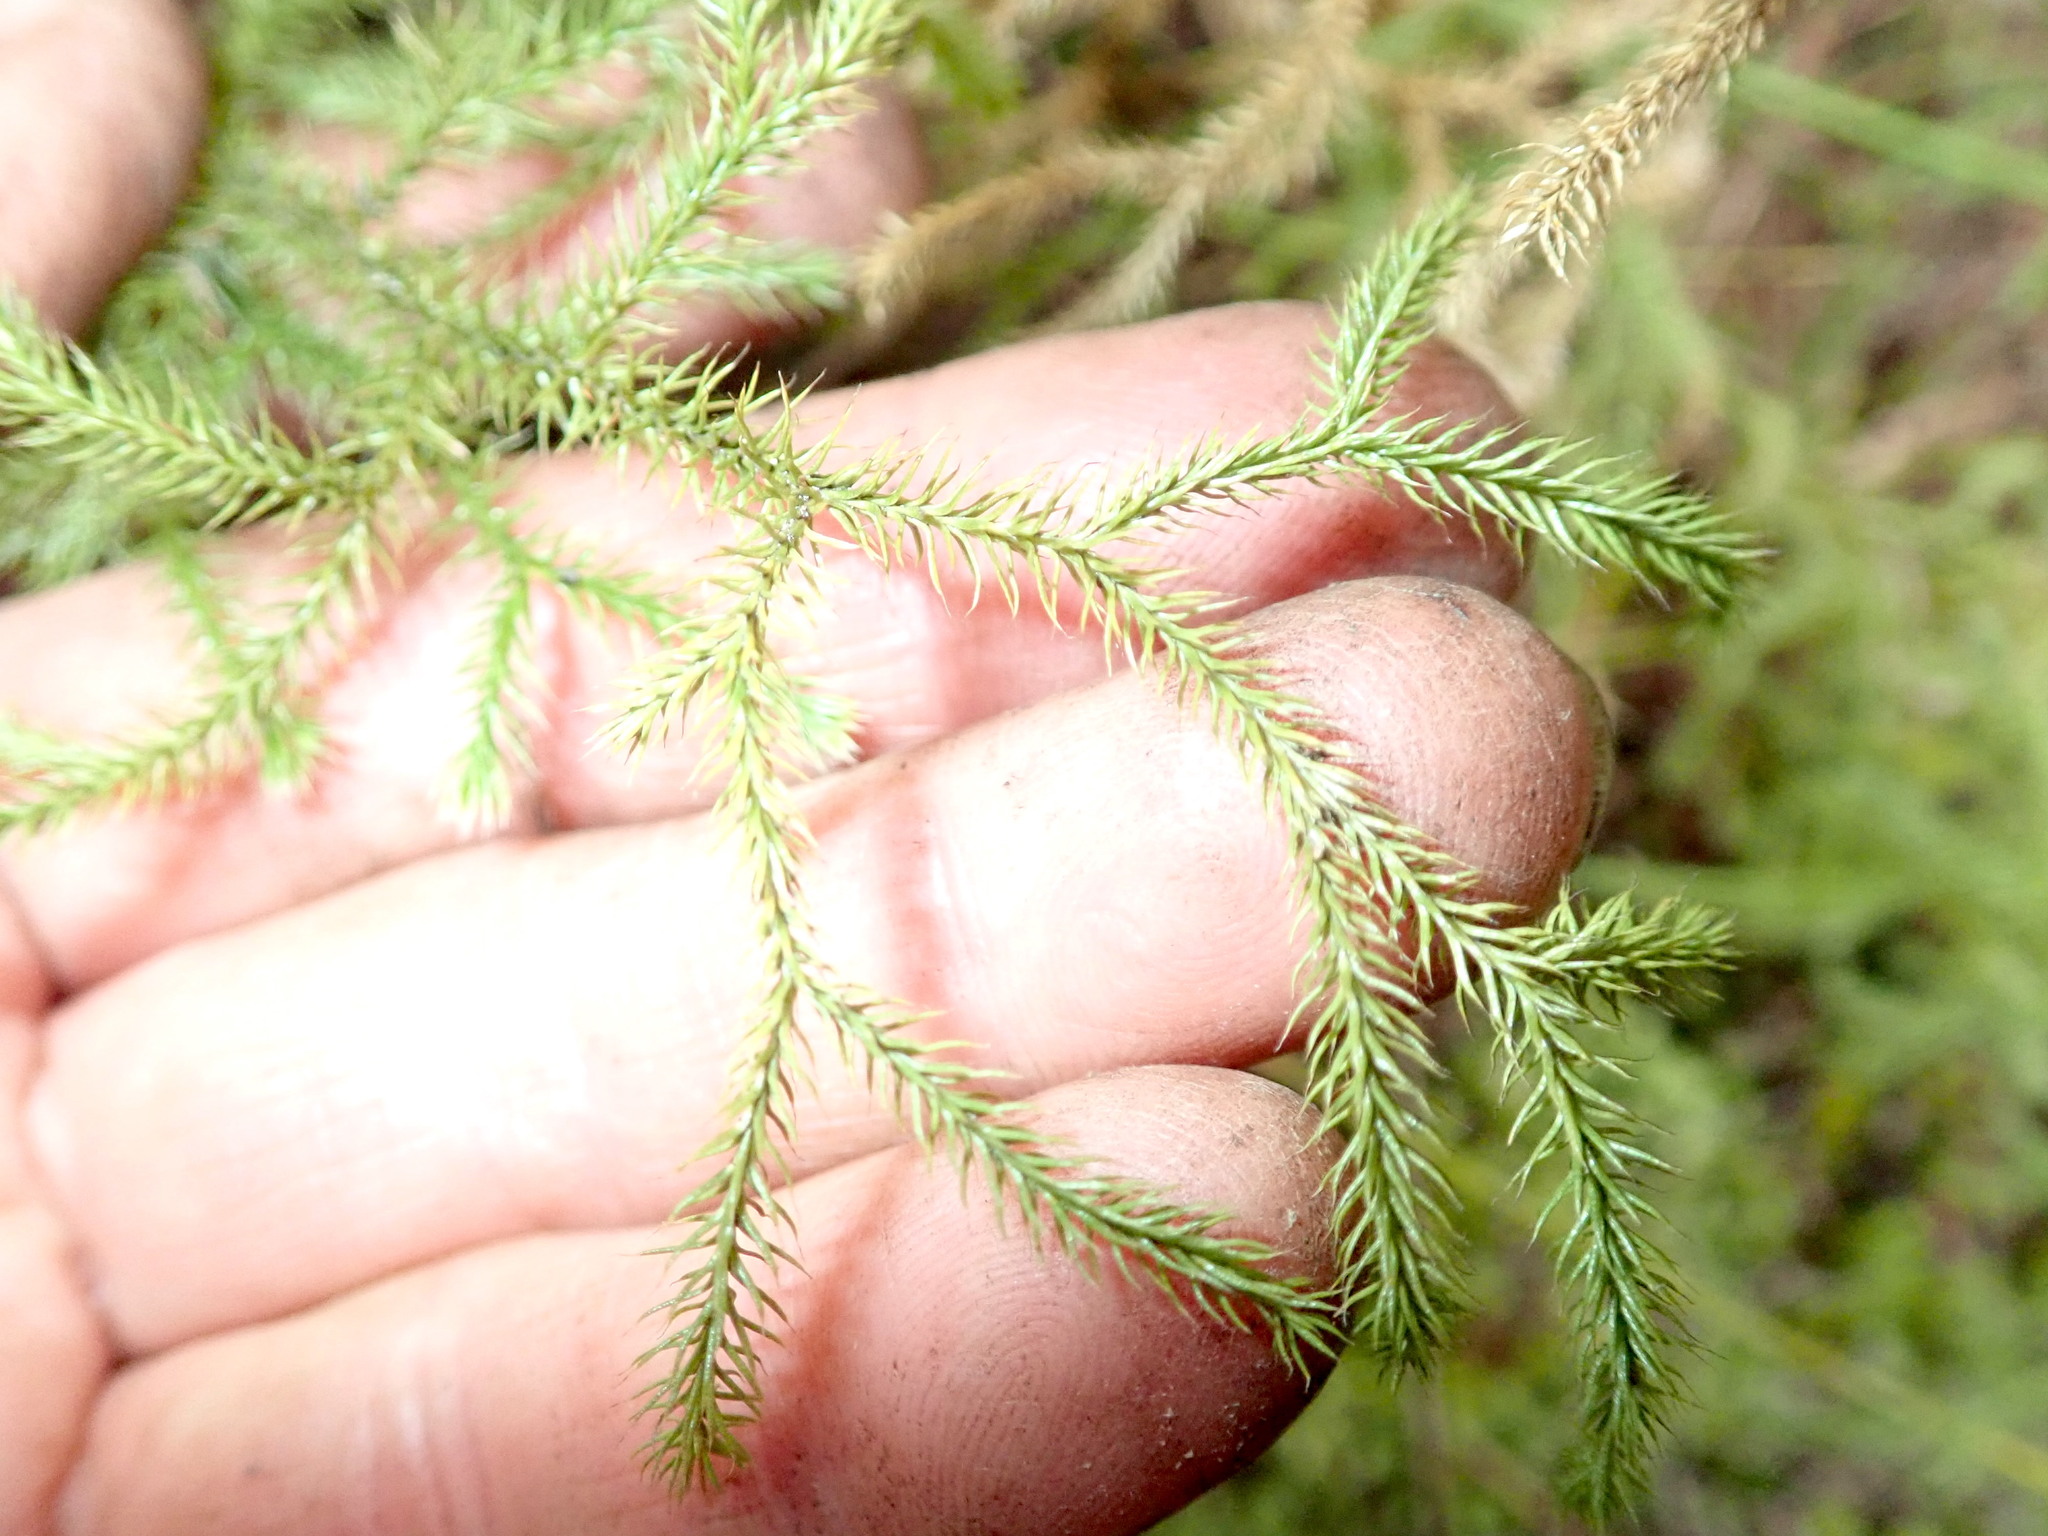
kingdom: Plantae
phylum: Tracheophyta
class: Lycopodiopsida
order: Lycopodiales
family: Lycopodiaceae
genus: Pseudolycopodium
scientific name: Pseudolycopodium densum
